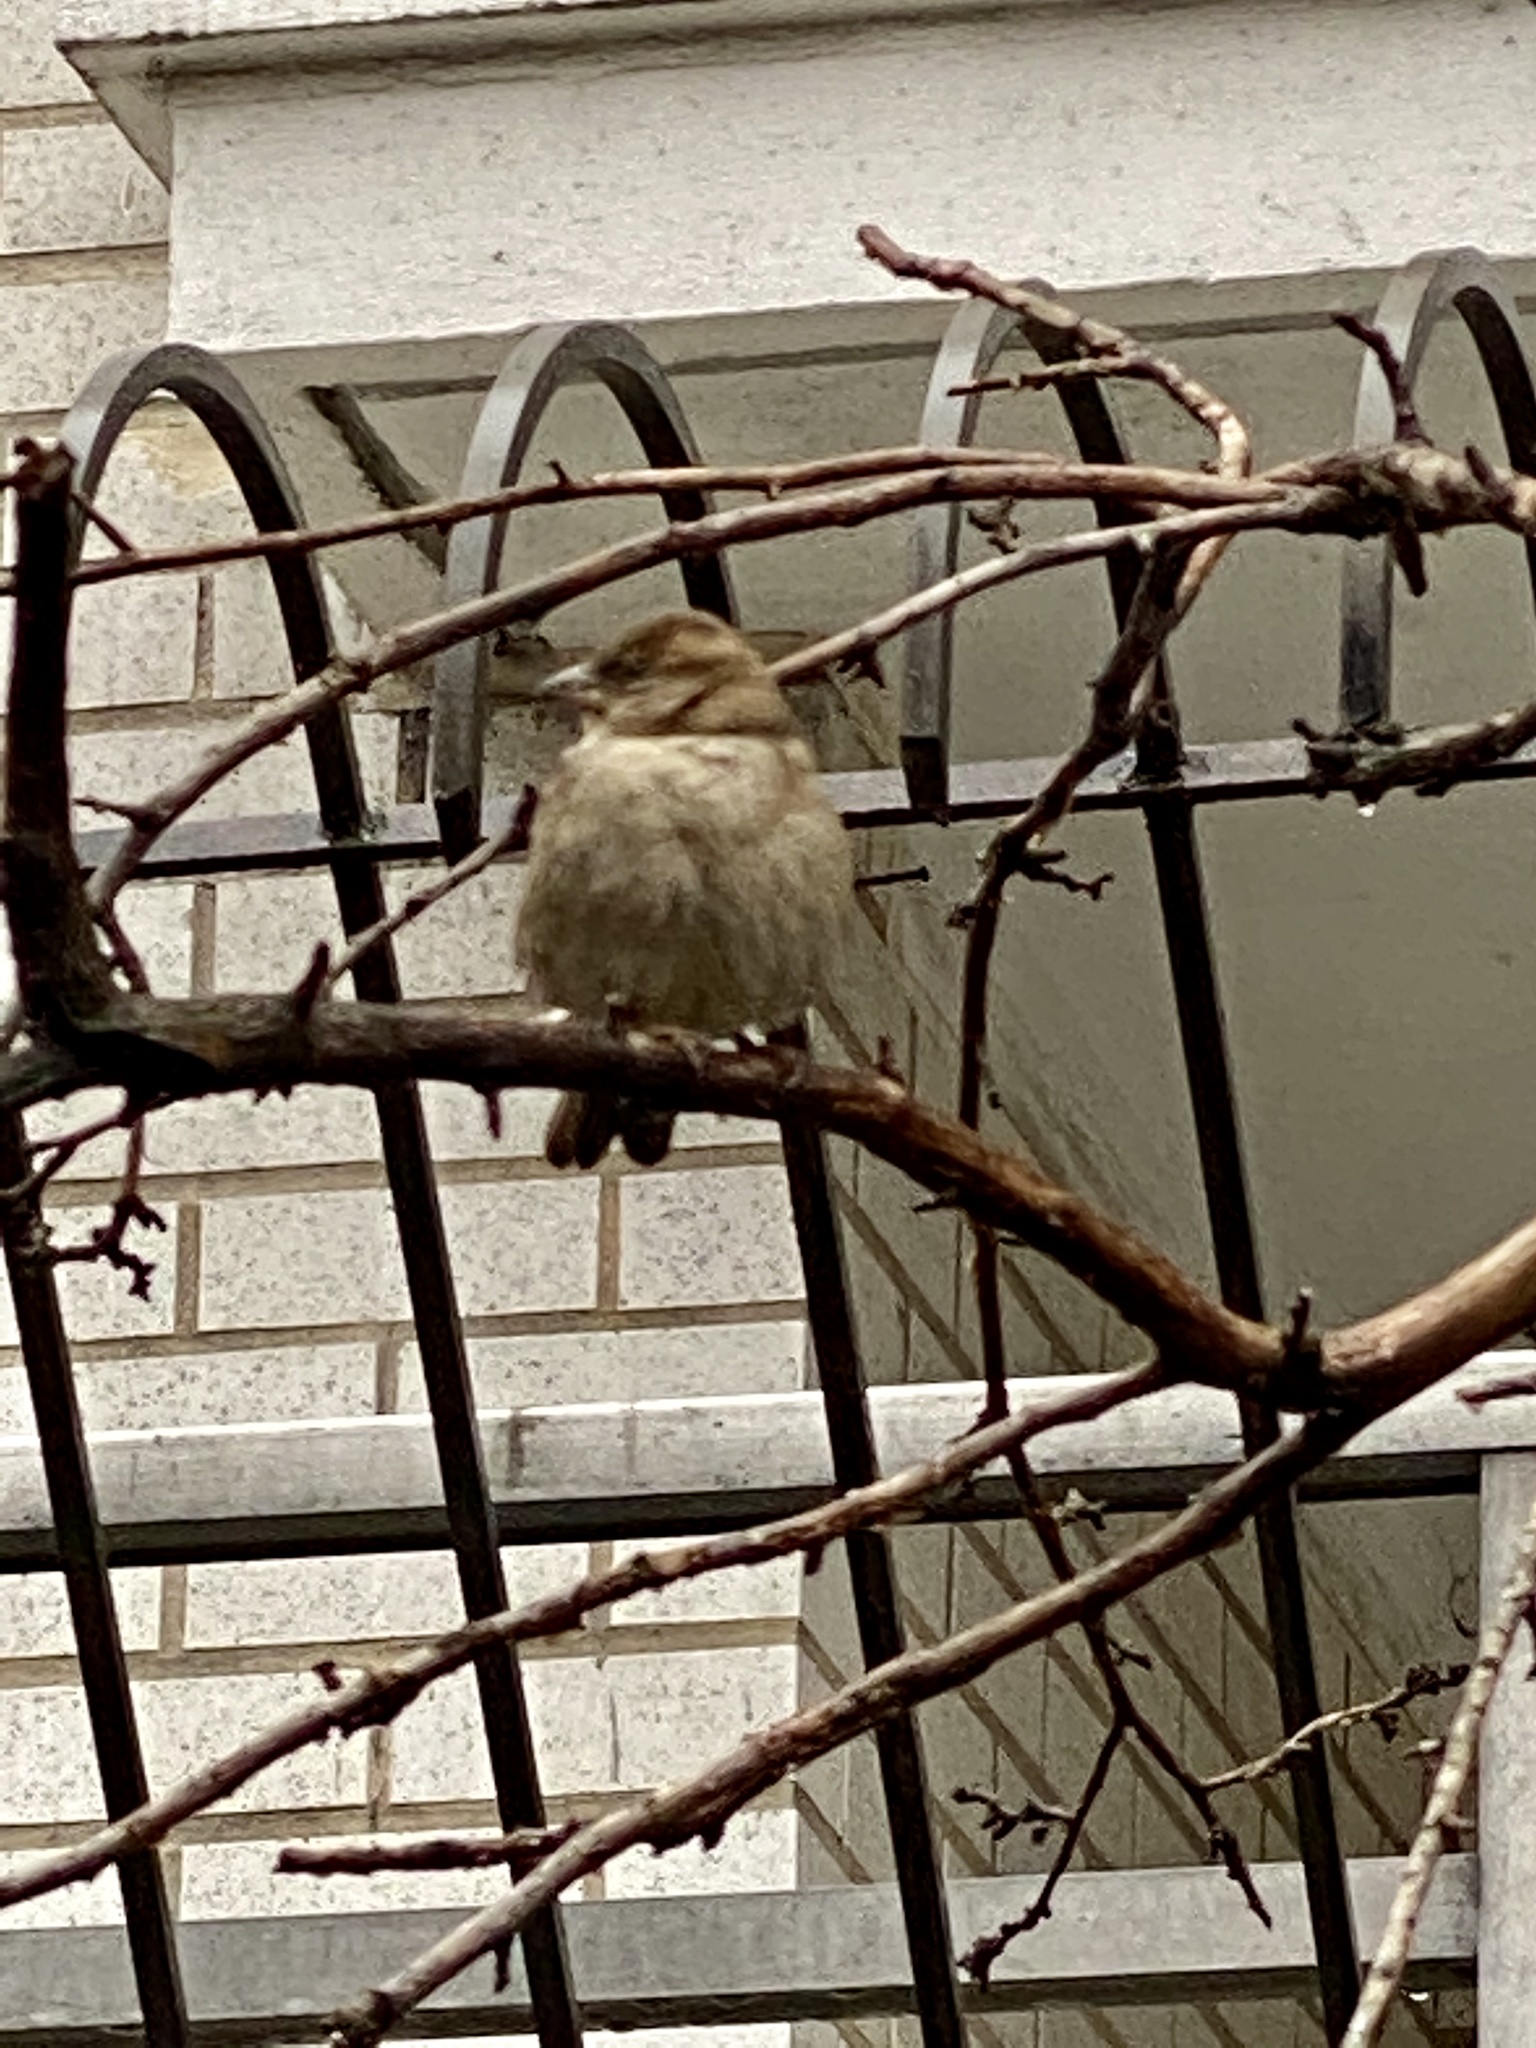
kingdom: Animalia
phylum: Chordata
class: Aves
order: Passeriformes
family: Passeridae
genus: Passer
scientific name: Passer domesticus
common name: House sparrow
